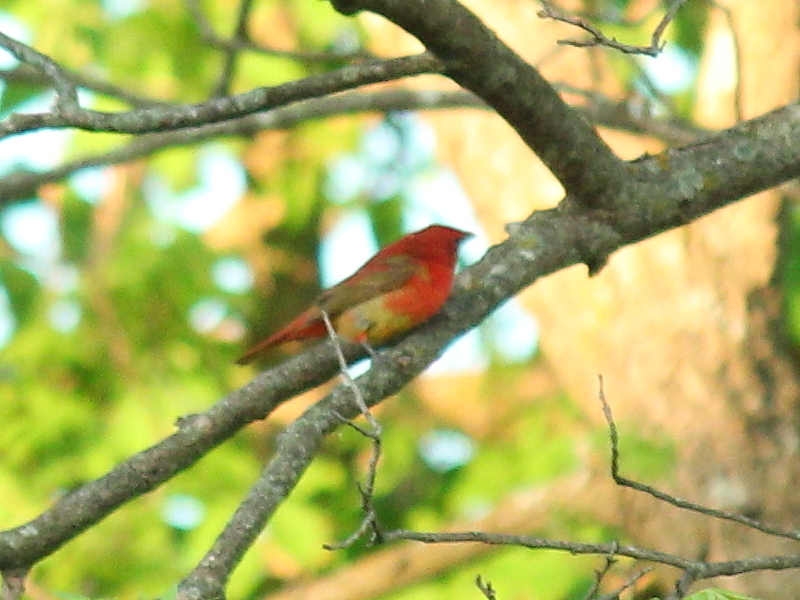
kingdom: Animalia
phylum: Chordata
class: Aves
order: Passeriformes
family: Cardinalidae
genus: Piranga
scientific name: Piranga rubra
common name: Summer tanager
